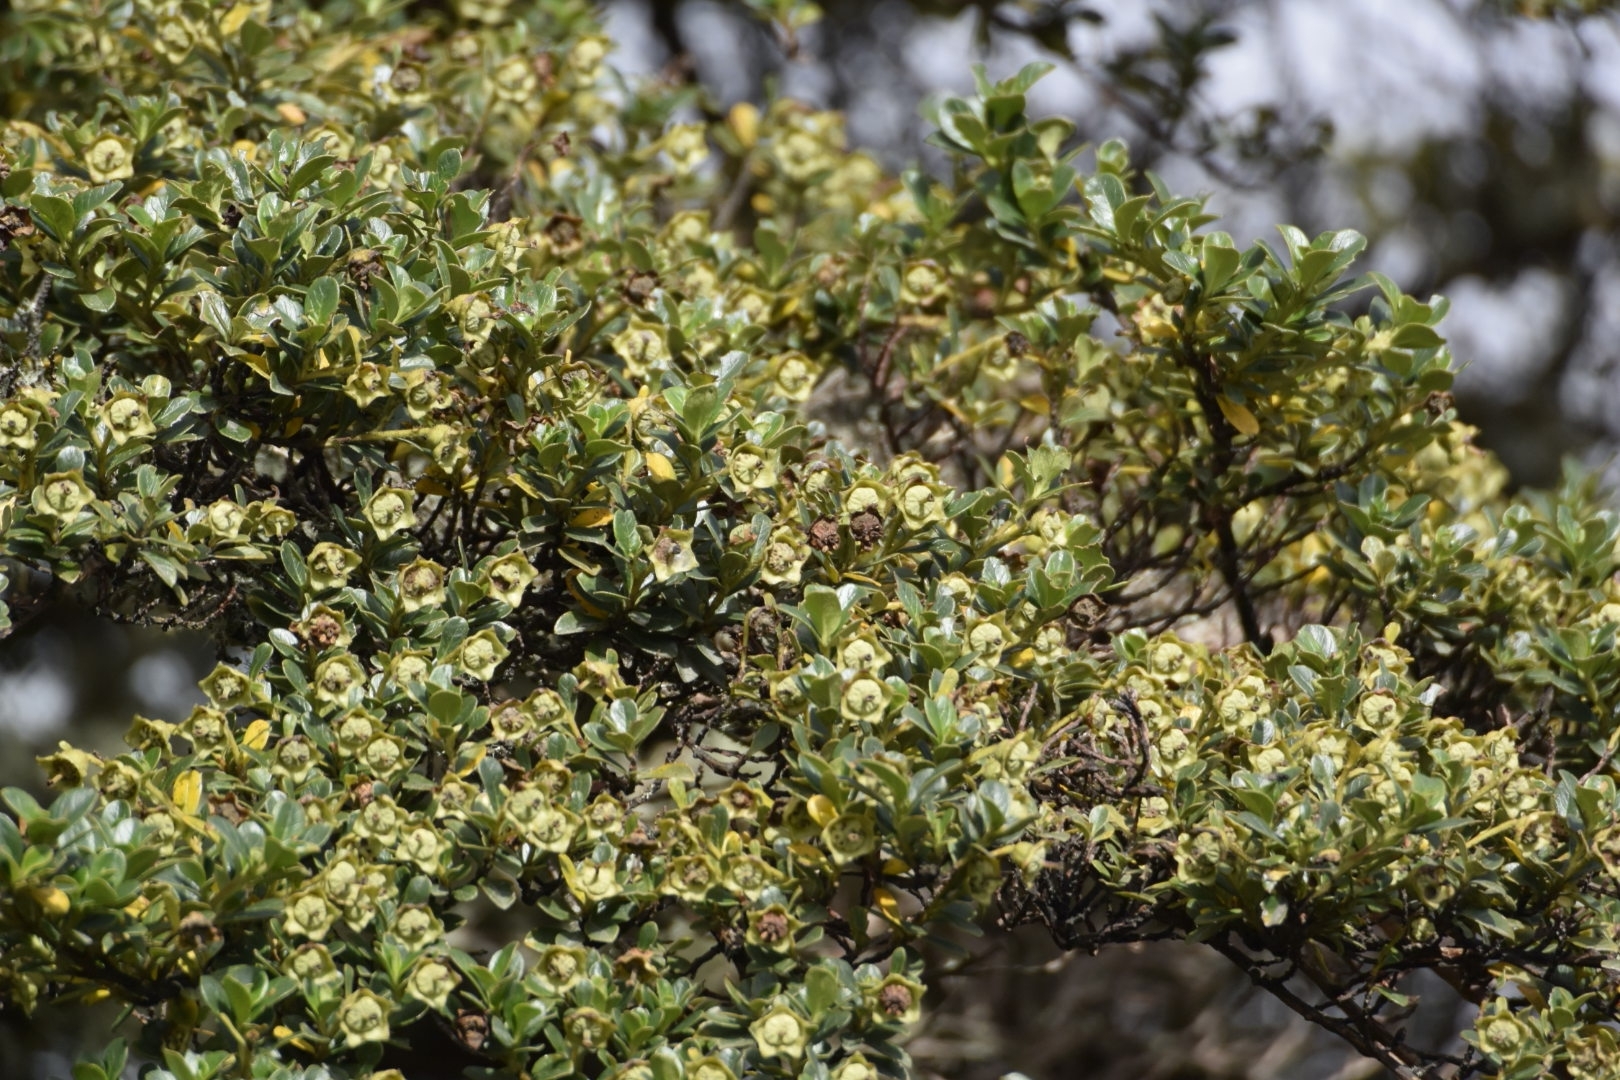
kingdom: Plantae
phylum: Tracheophyta
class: Magnoliopsida
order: Escalloniales
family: Escalloniaceae
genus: Escallonia
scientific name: Escallonia myrtilloides
